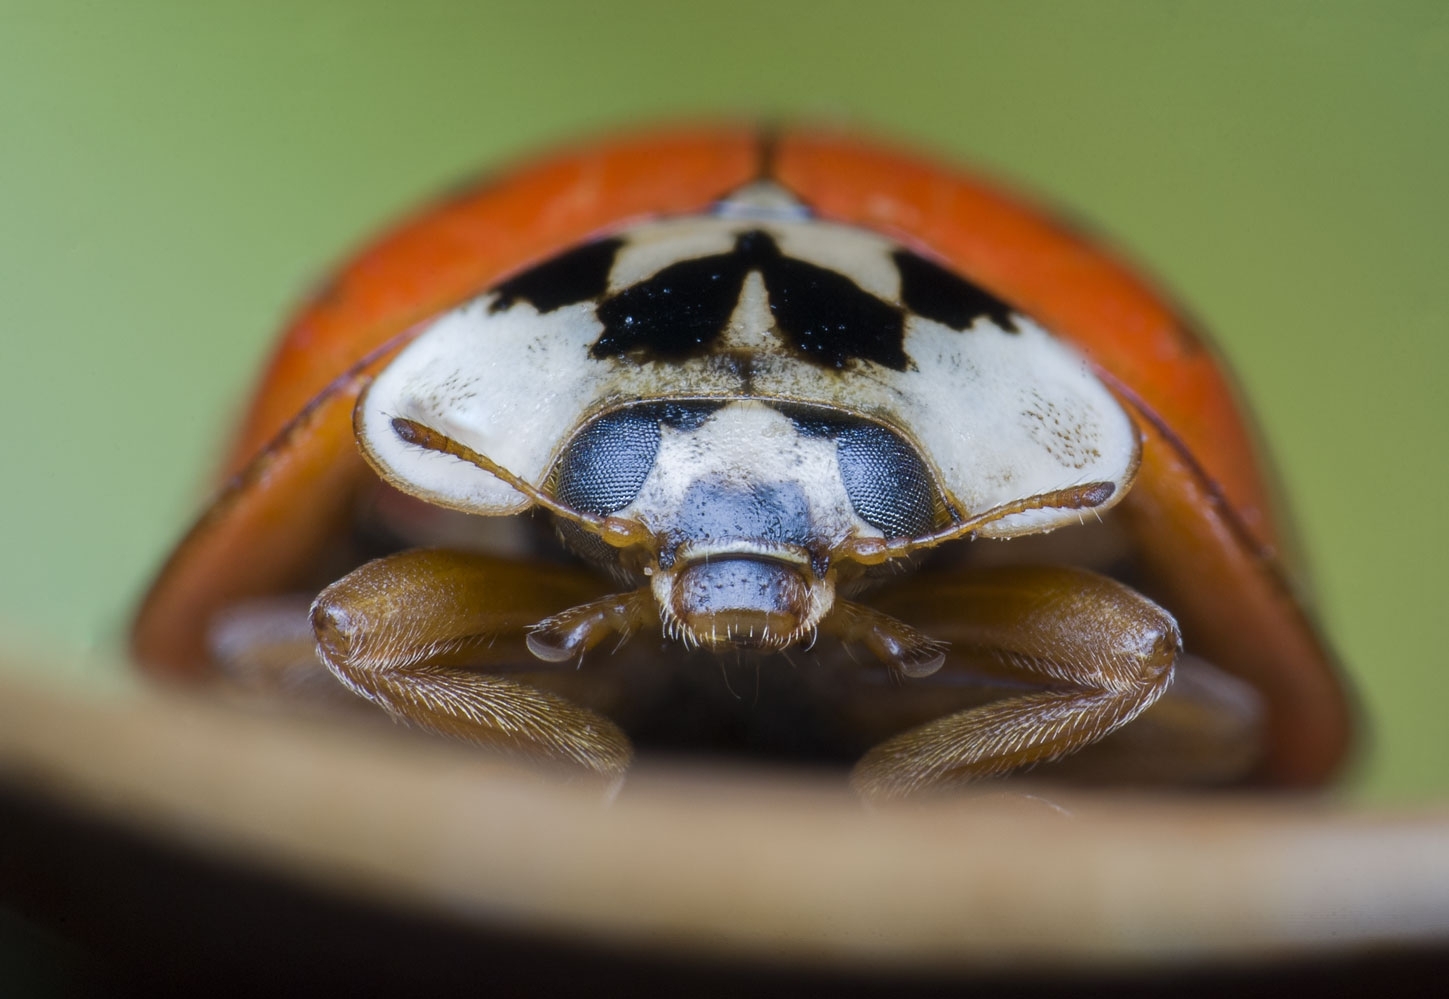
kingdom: Animalia
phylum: Arthropoda
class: Insecta
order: Coleoptera
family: Coccinellidae
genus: Harmonia
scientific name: Harmonia axyridis
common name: Harlequin ladybird
